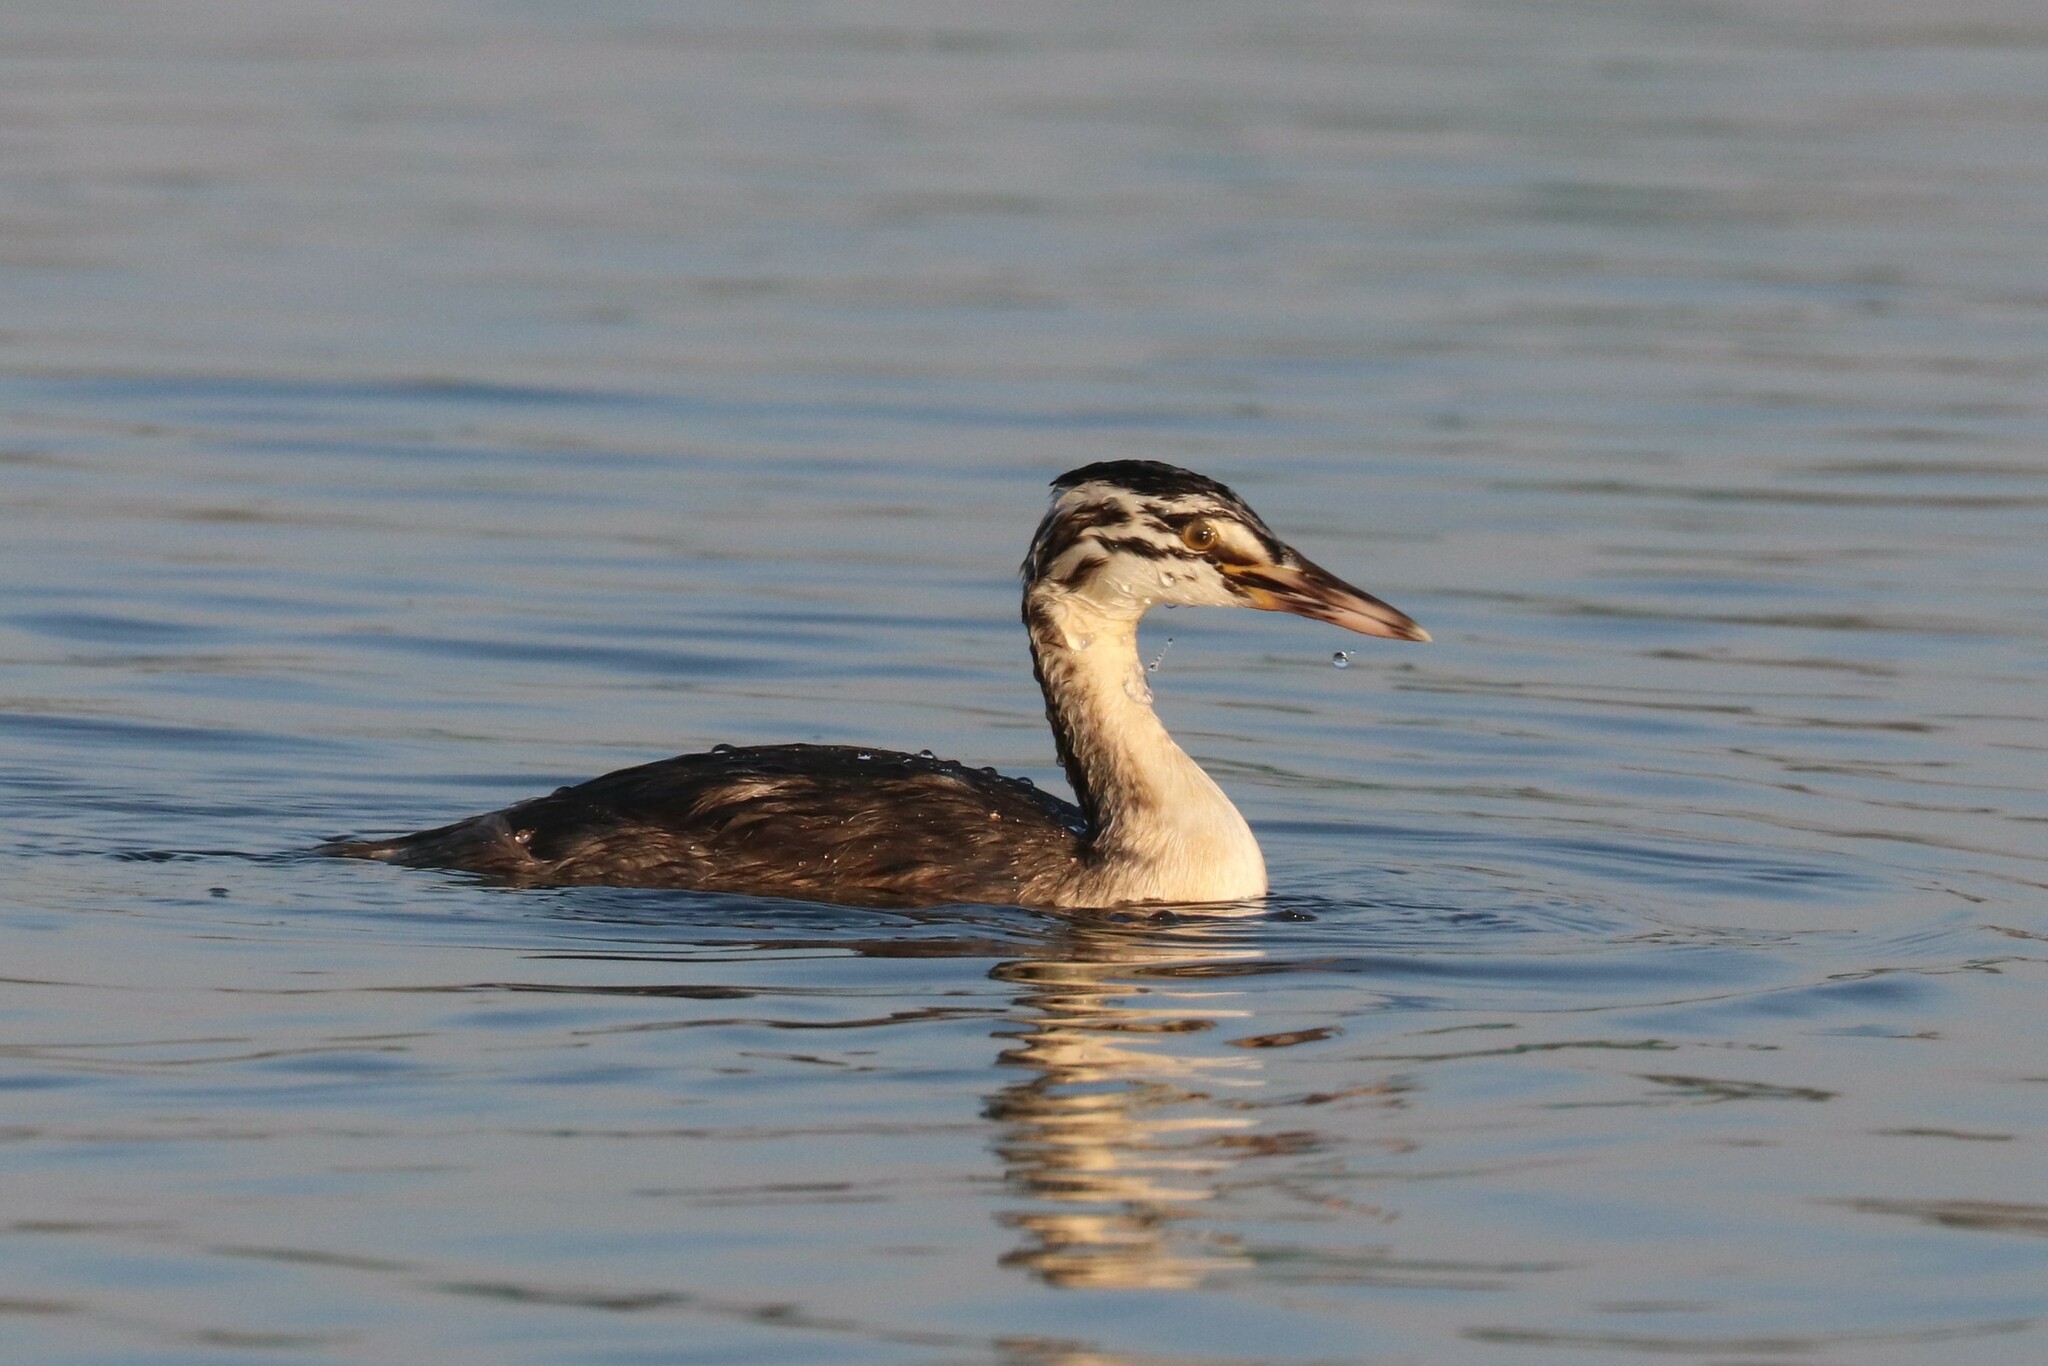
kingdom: Animalia
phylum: Chordata
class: Aves
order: Podicipediformes
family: Podicipedidae
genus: Podiceps
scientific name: Podiceps cristatus
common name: Great crested grebe
